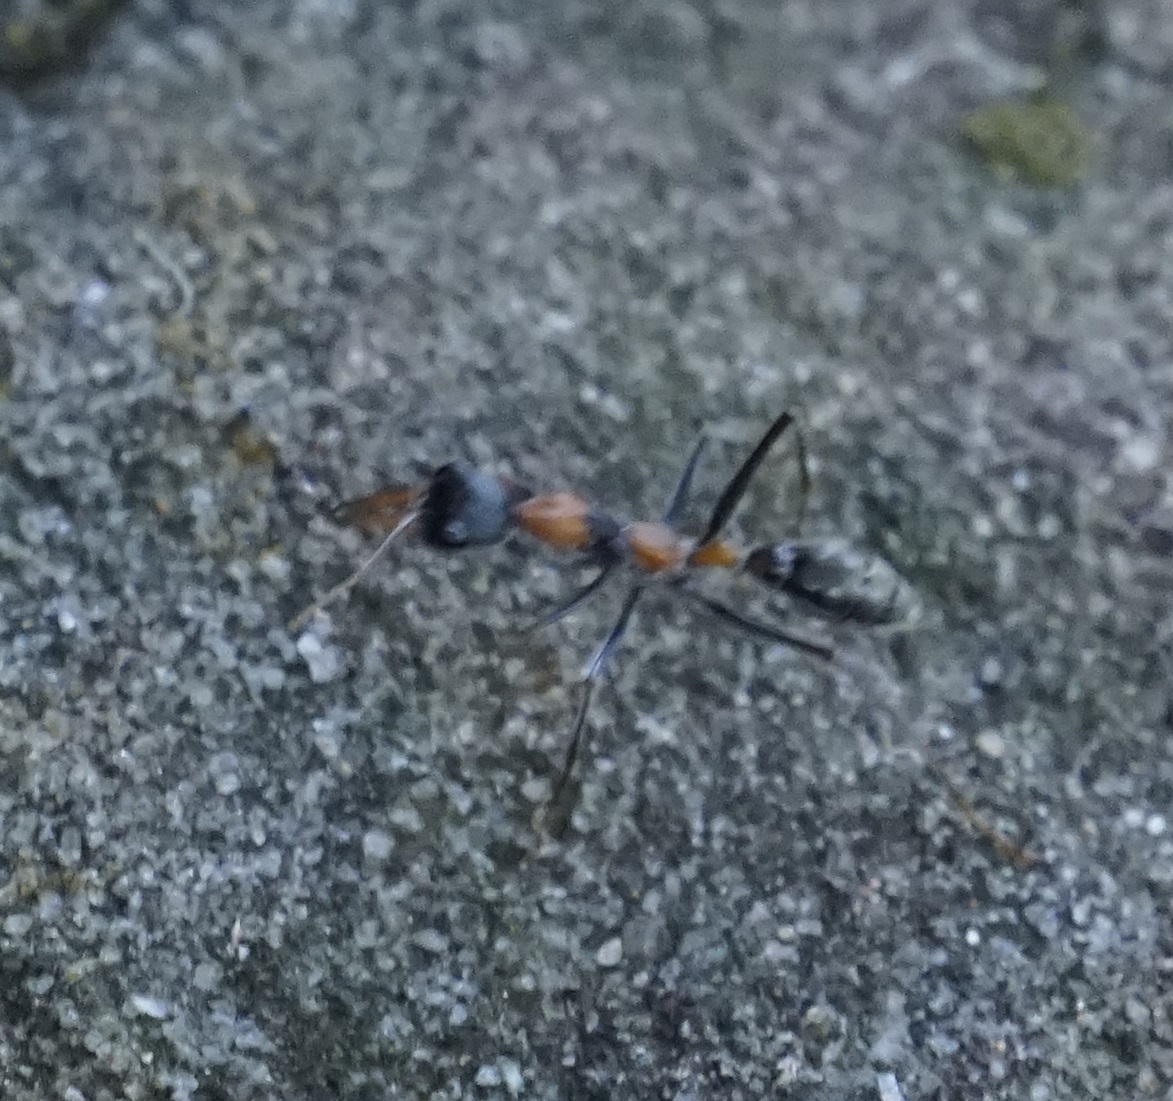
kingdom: Animalia
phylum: Arthropoda
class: Insecta
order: Hymenoptera
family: Formicidae
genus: Myrmecia
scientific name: Myrmecia nigrocincta
